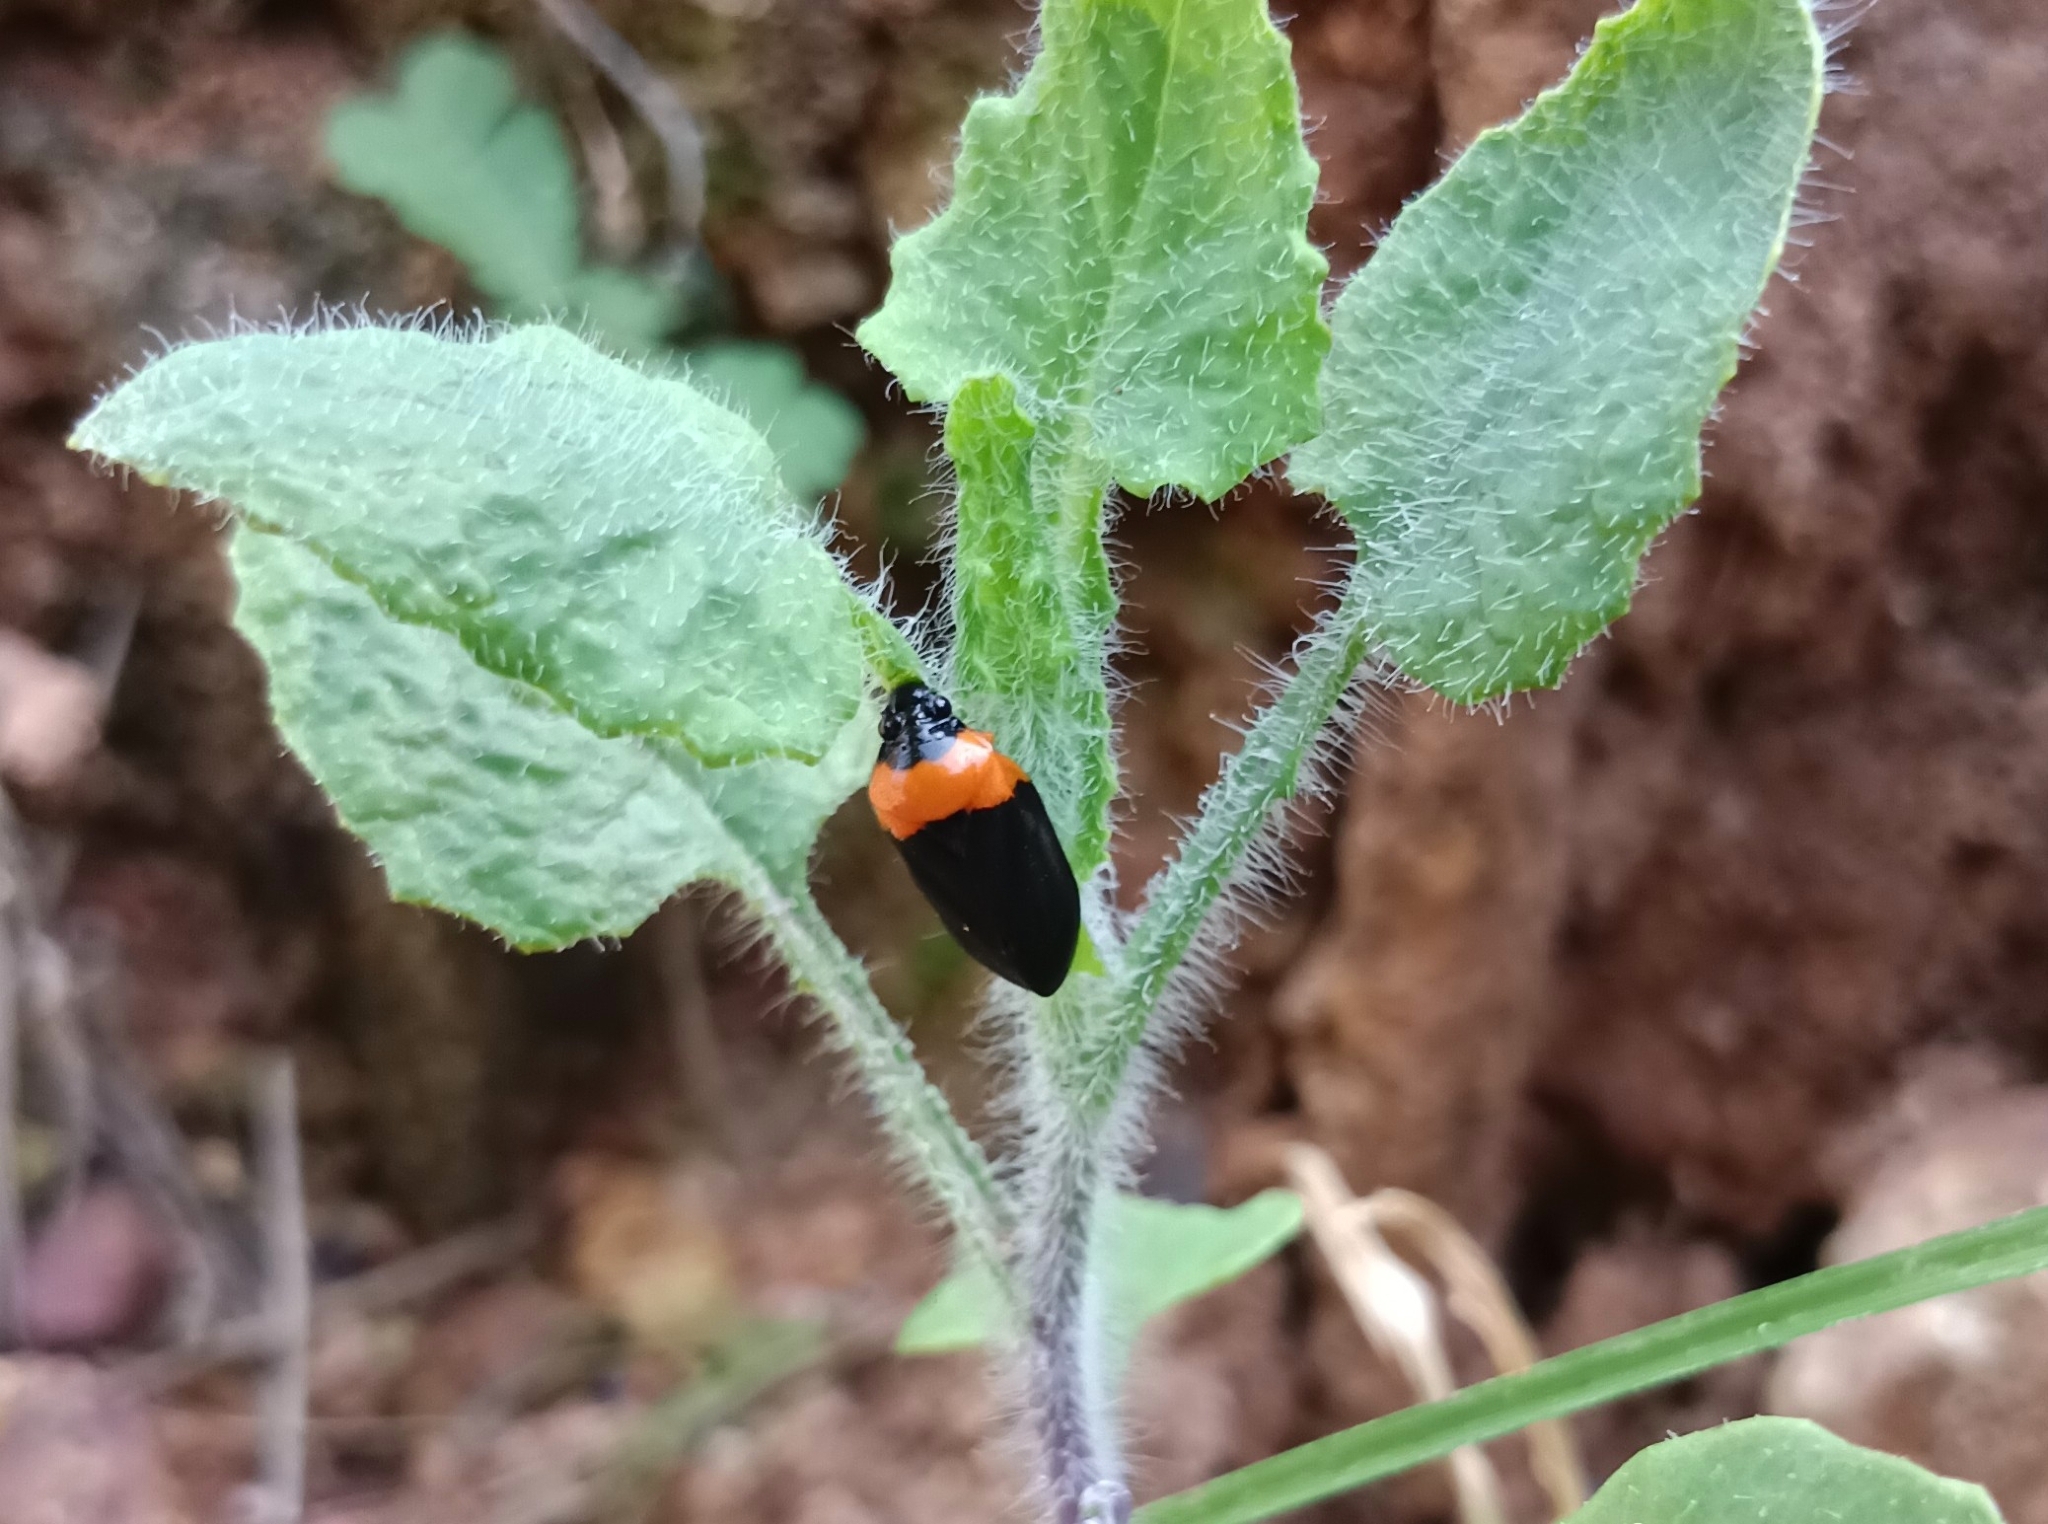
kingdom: Animalia
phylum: Arthropoda
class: Insecta
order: Hemiptera
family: Cercopidae
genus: Phymatostetha
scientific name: Phymatostetha deschampsi
